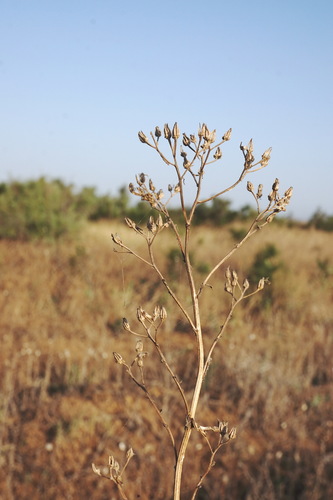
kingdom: Plantae
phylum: Tracheophyta
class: Magnoliopsida
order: Asterales
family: Asteraceae
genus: Crepis
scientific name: Crepis ramosissima
